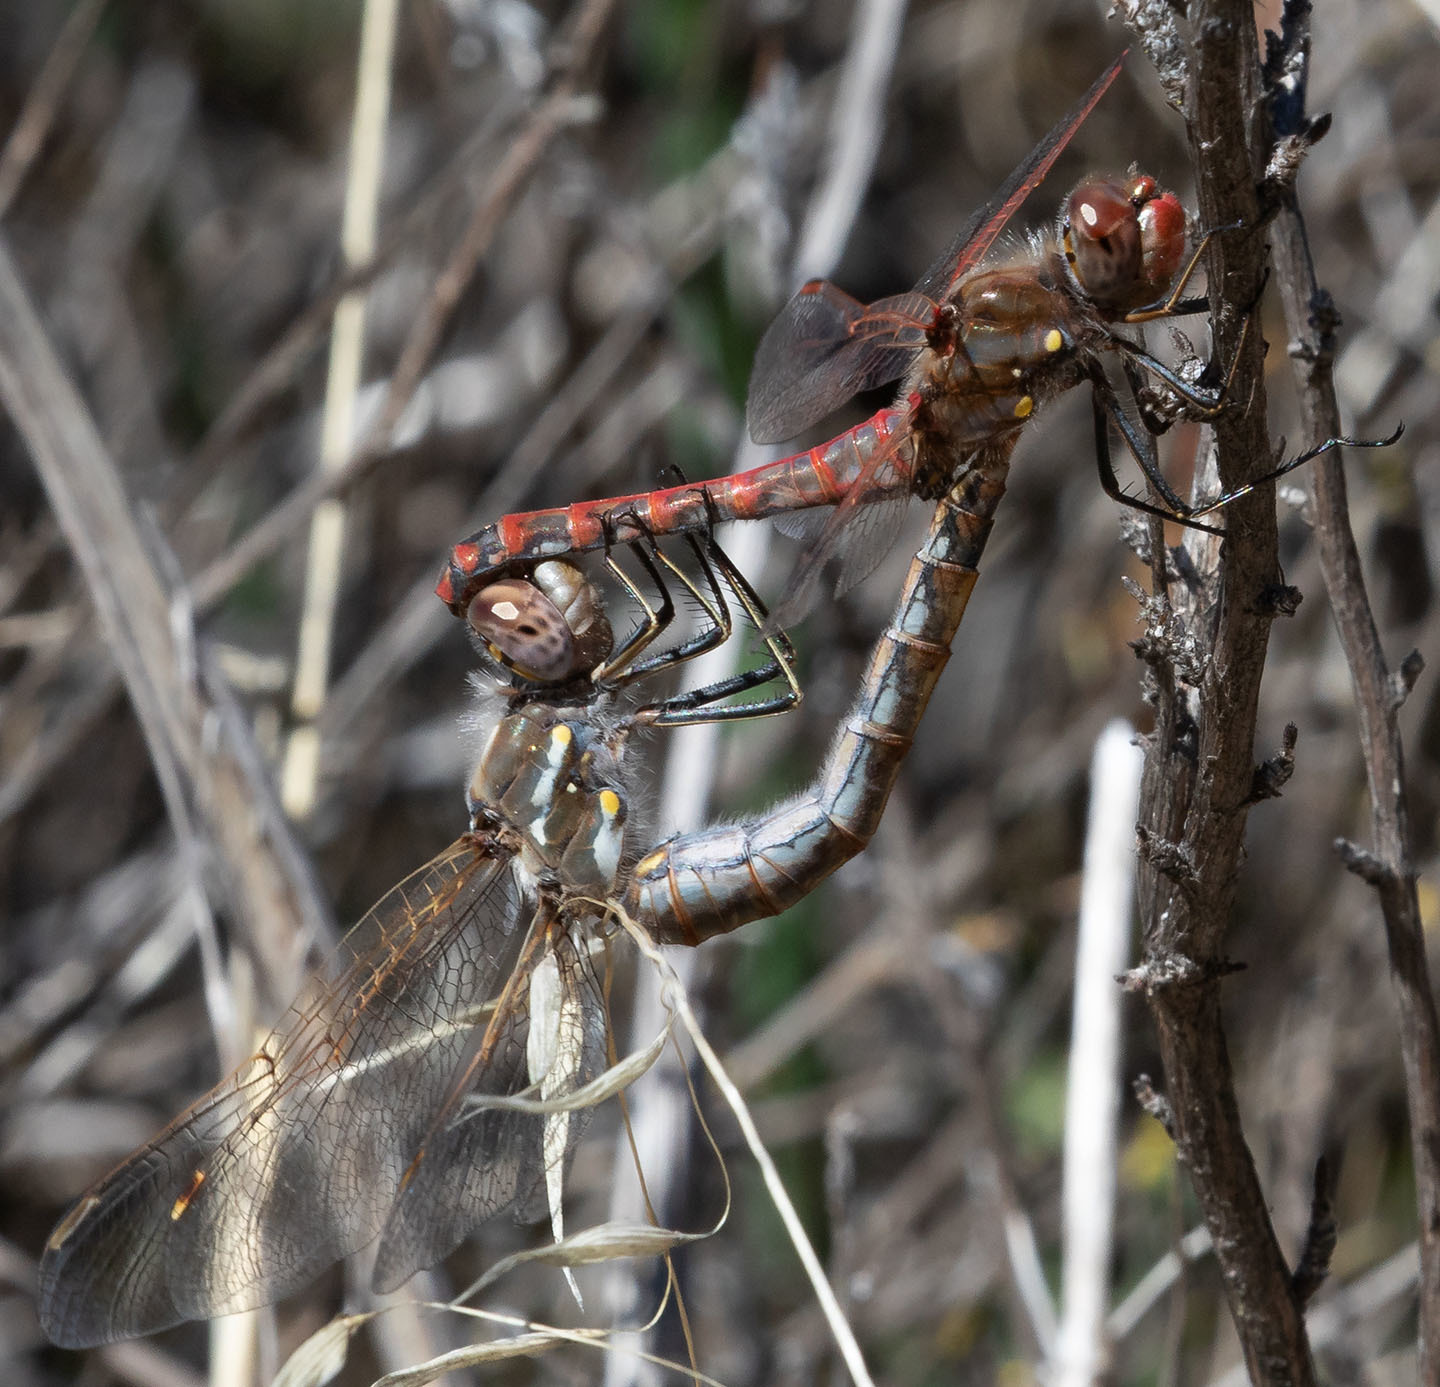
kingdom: Animalia
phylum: Arthropoda
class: Insecta
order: Odonata
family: Libellulidae
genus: Sympetrum
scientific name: Sympetrum corruptum
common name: Variegated meadowhawk
